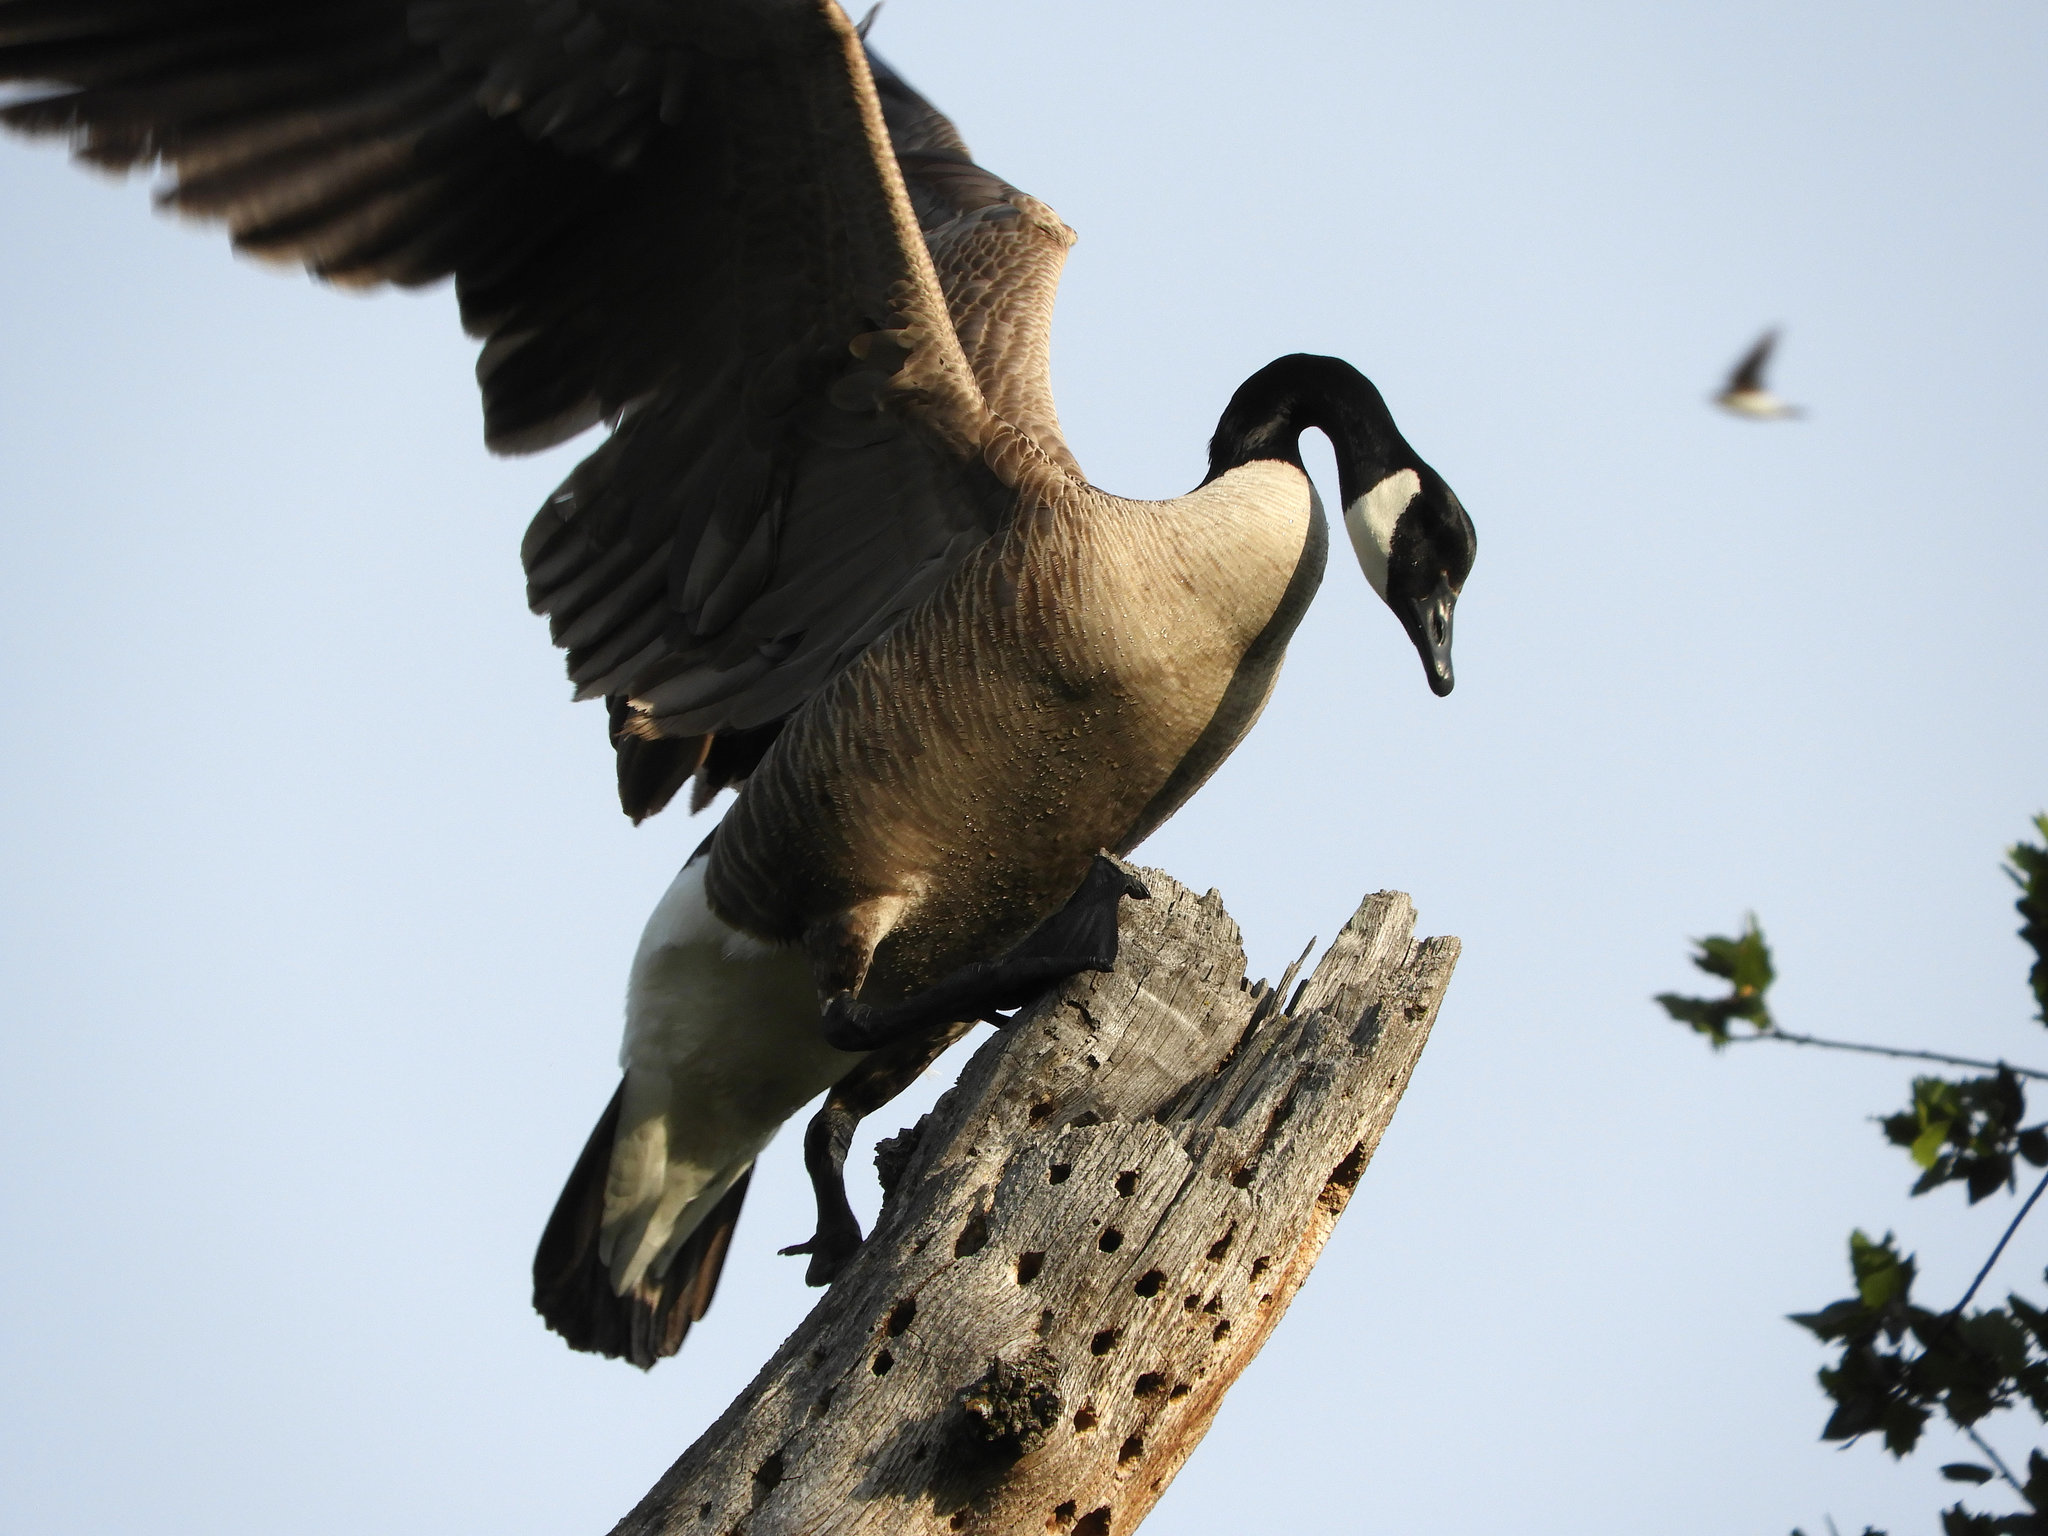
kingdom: Animalia
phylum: Chordata
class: Aves
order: Anseriformes
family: Anatidae
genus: Branta
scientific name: Branta canadensis
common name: Canada goose
